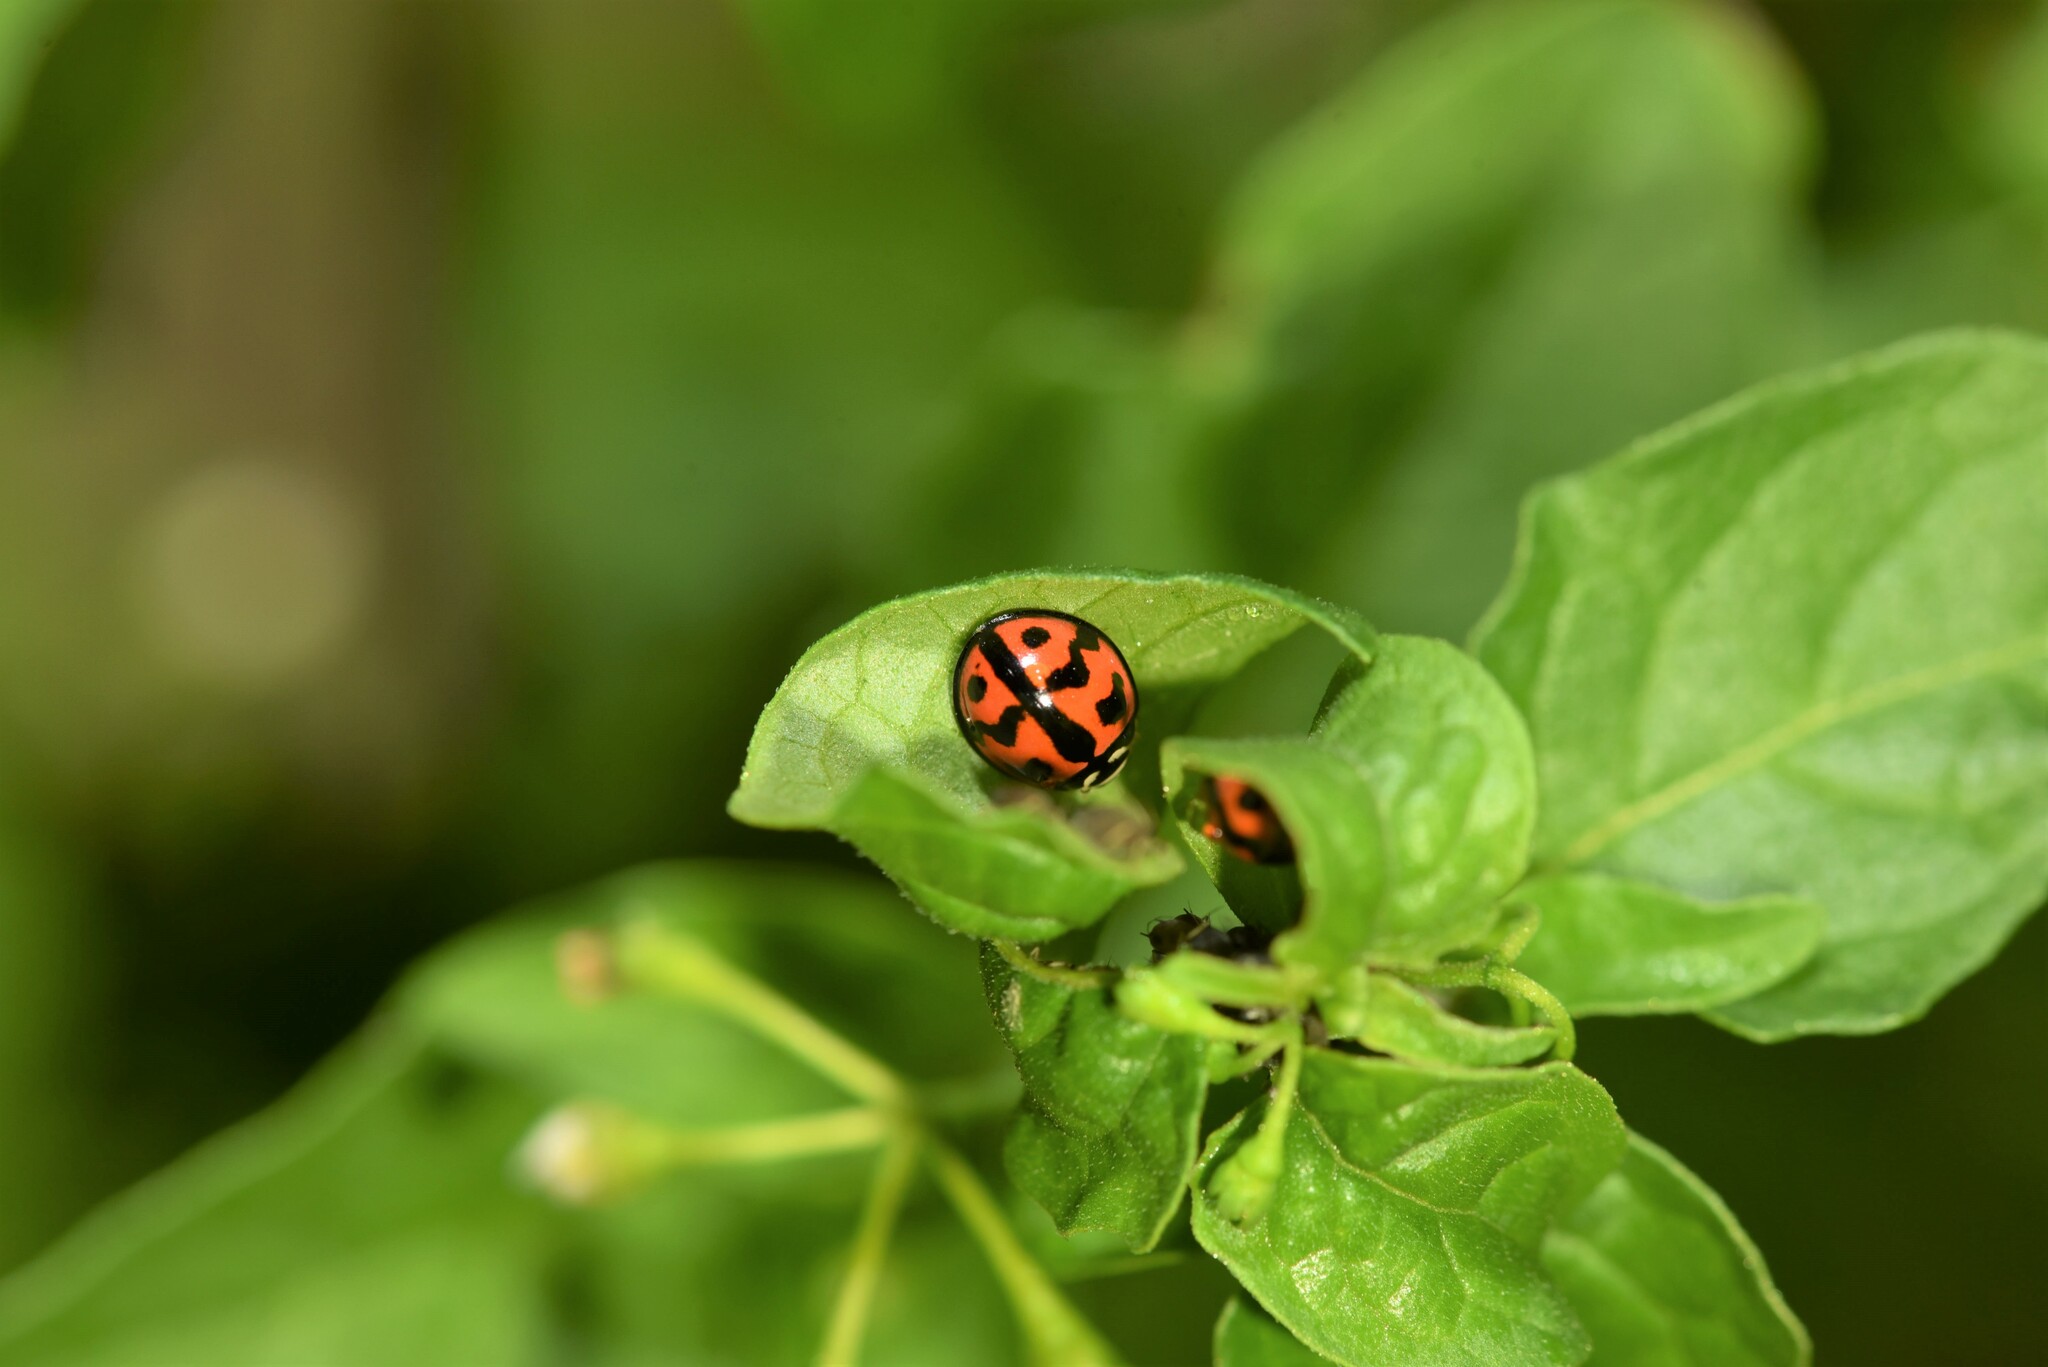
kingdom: Animalia
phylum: Arthropoda
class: Insecta
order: Coleoptera
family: Coccinellidae
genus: Cheilomenes
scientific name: Cheilomenes sexmaculata
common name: Ladybird beetle
